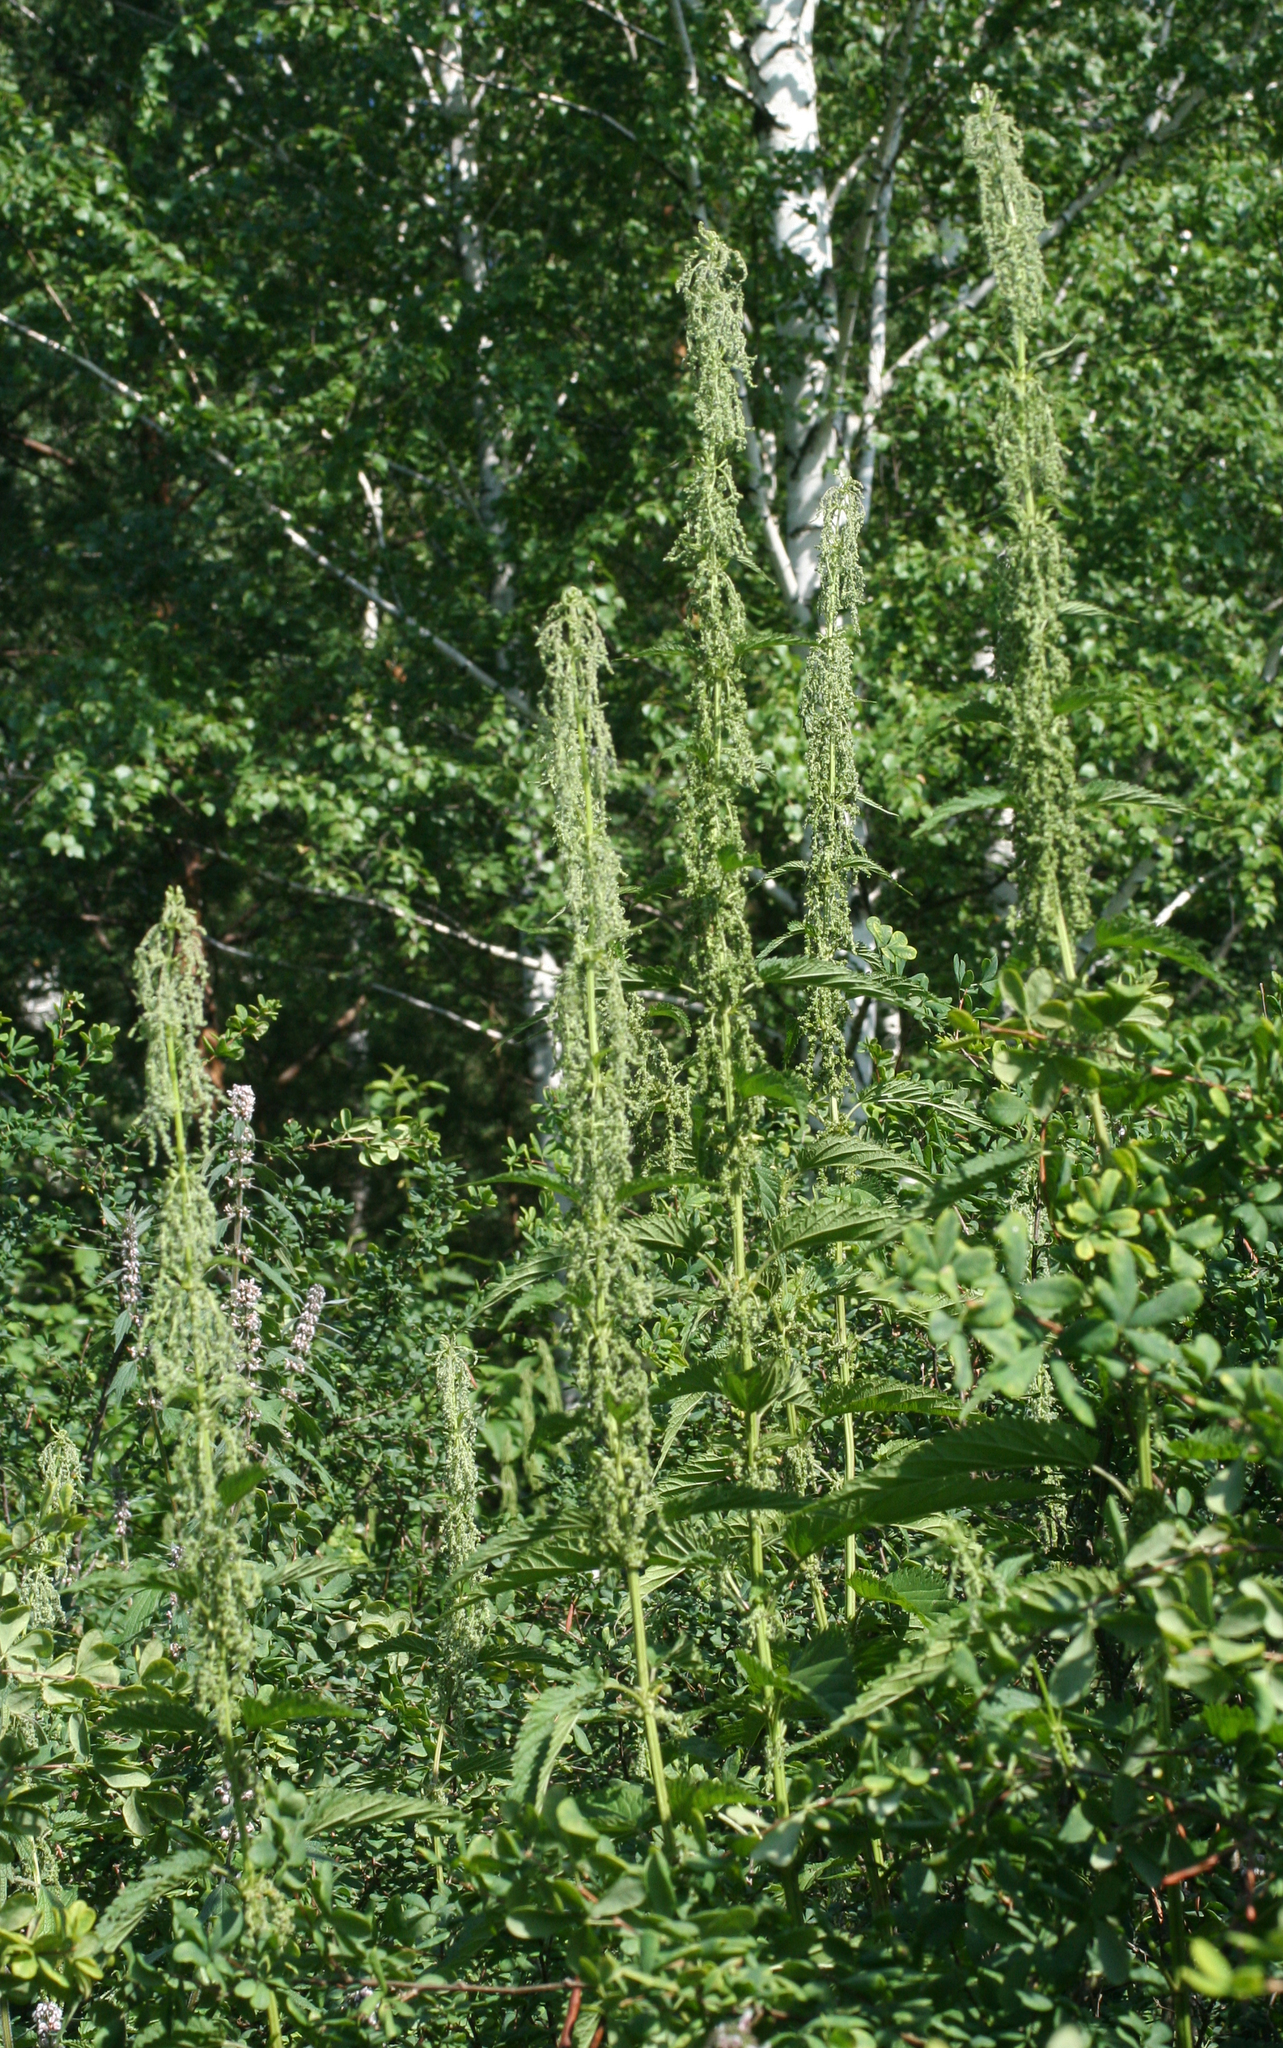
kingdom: Plantae
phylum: Tracheophyta
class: Magnoliopsida
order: Rosales
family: Urticaceae
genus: Urtica
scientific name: Urtica dioica
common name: Common nettle
